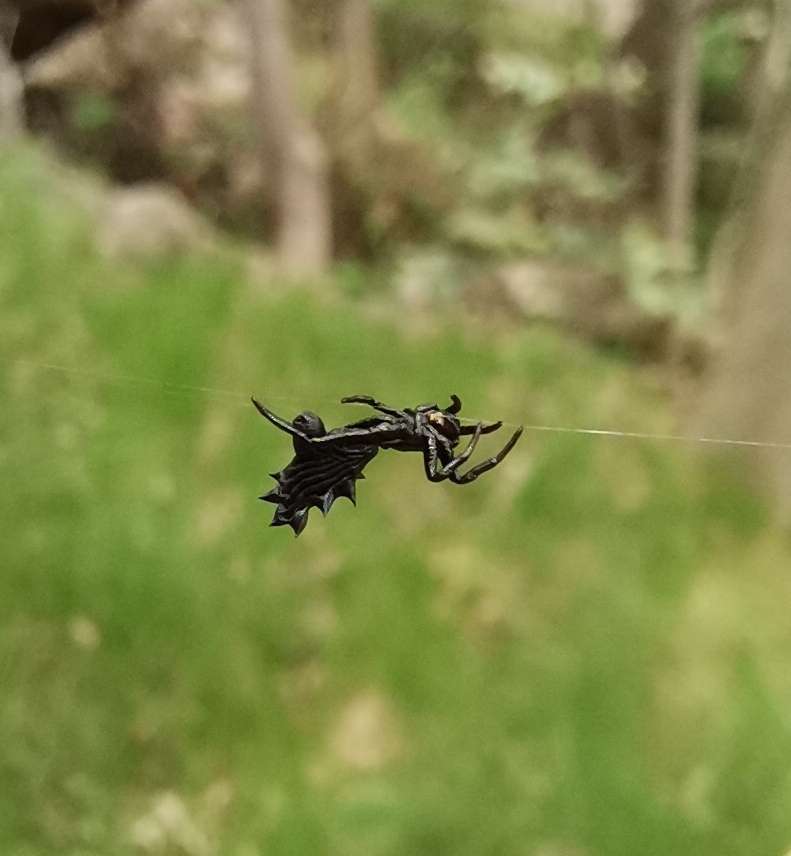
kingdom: Animalia
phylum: Arthropoda
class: Arachnida
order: Araneae
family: Araneidae
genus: Micrathena
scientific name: Micrathena gracilis
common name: Orb weavers
